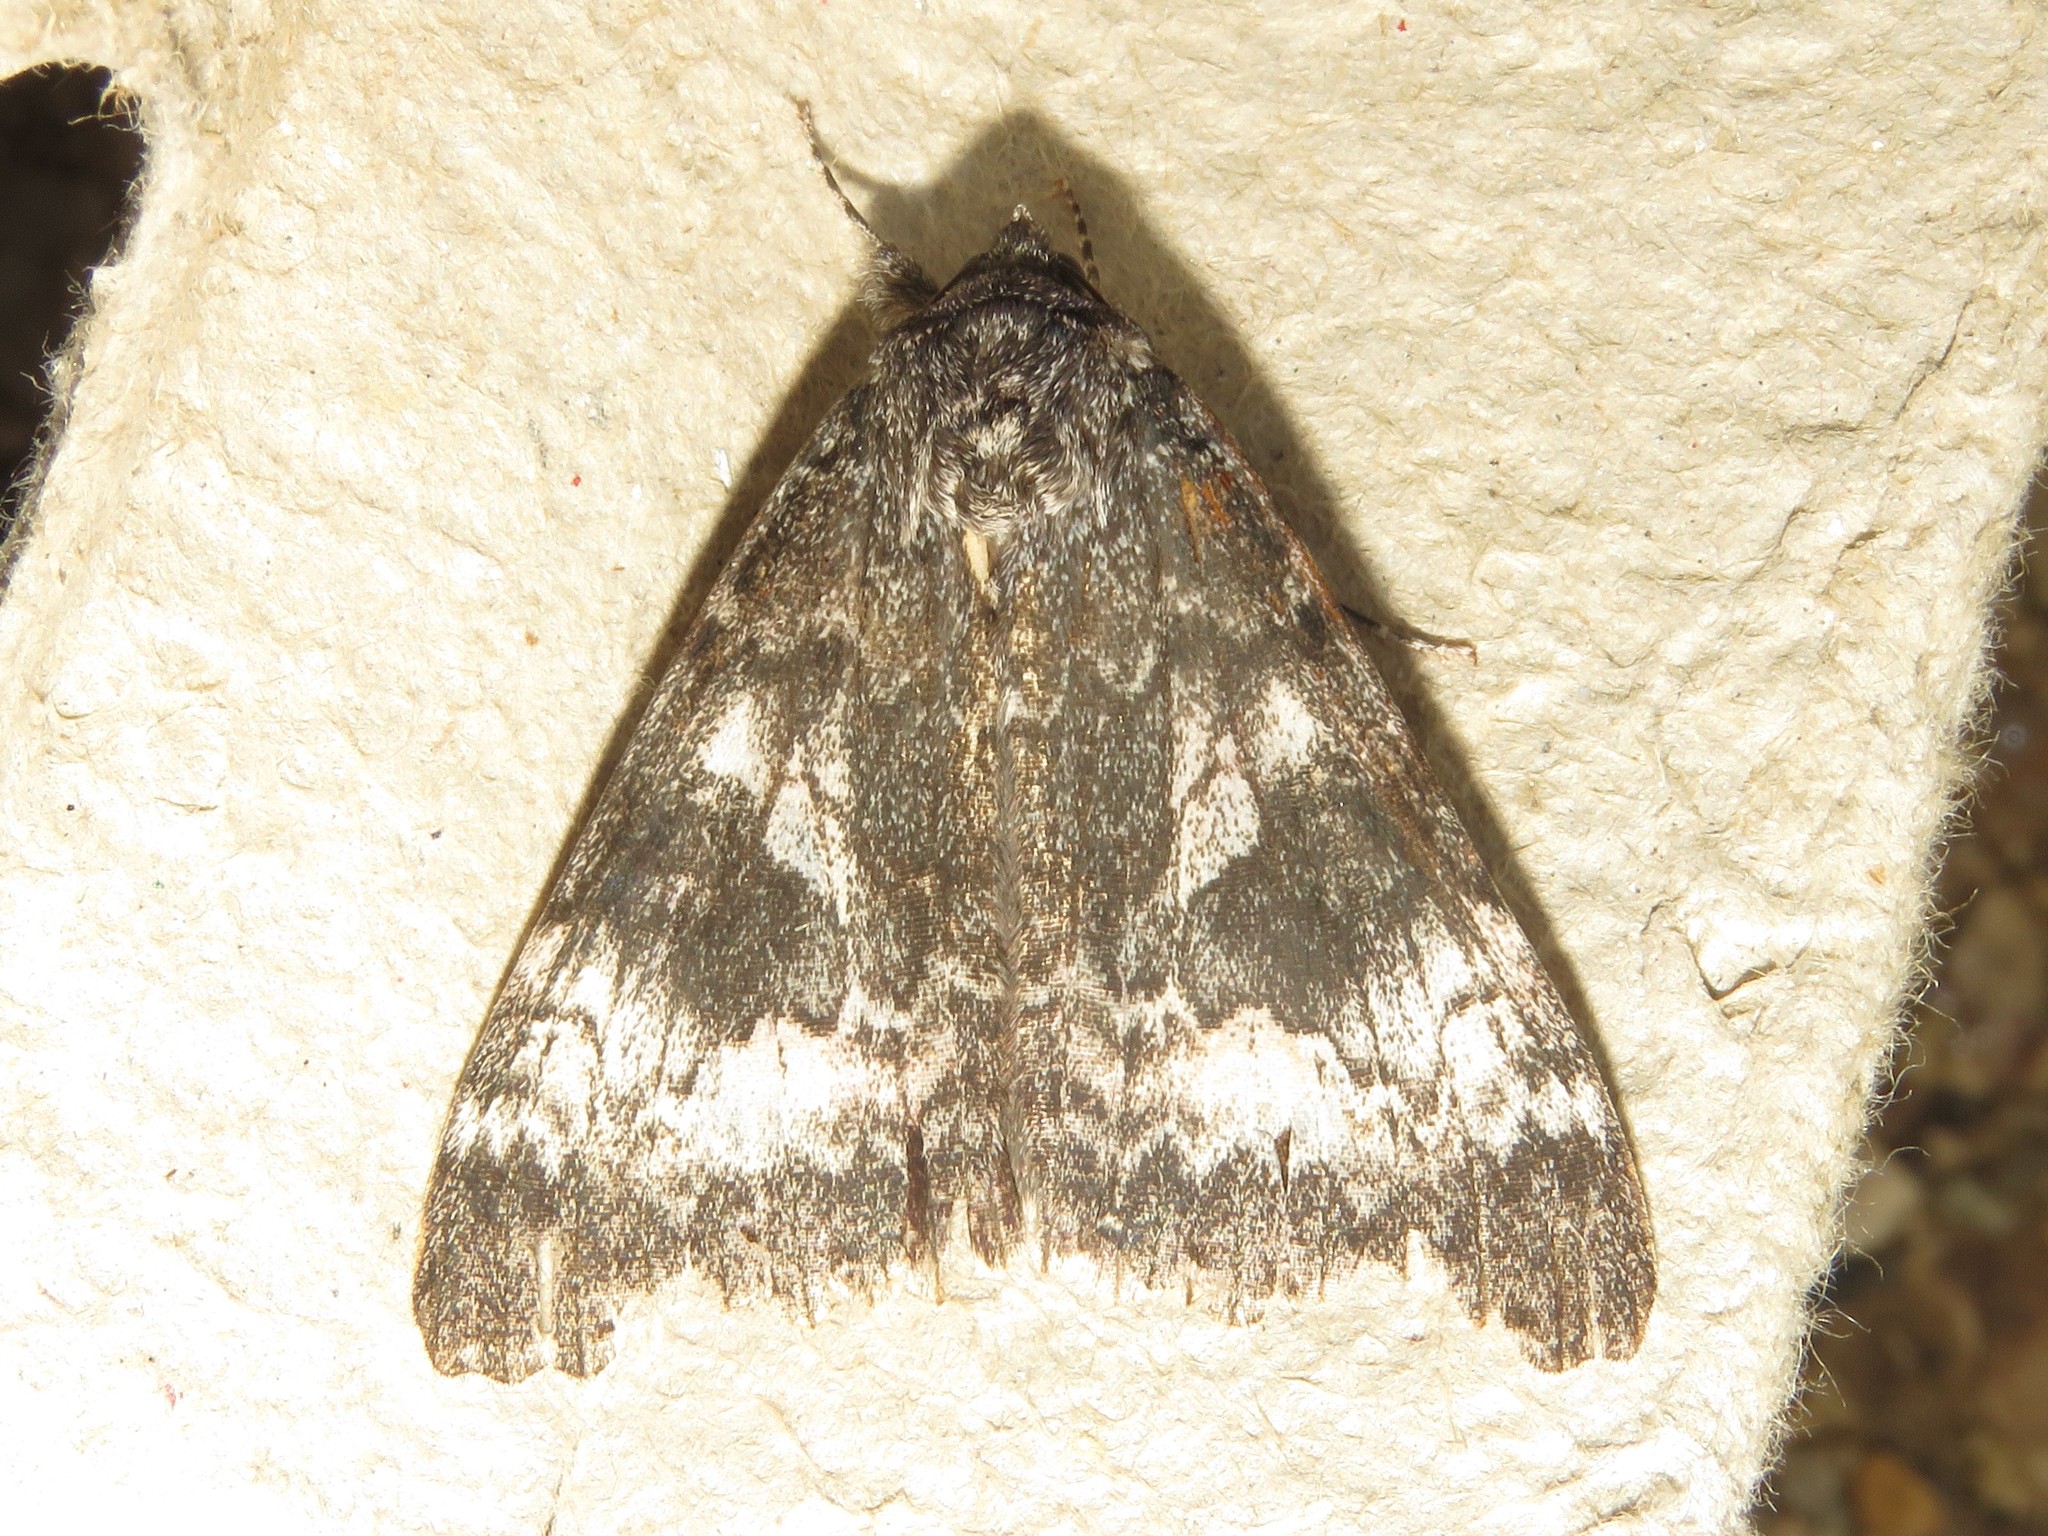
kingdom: Animalia
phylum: Arthropoda
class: Insecta
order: Lepidoptera
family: Erebidae
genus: Catocala
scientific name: Catocala briseis
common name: Briseis underwing
